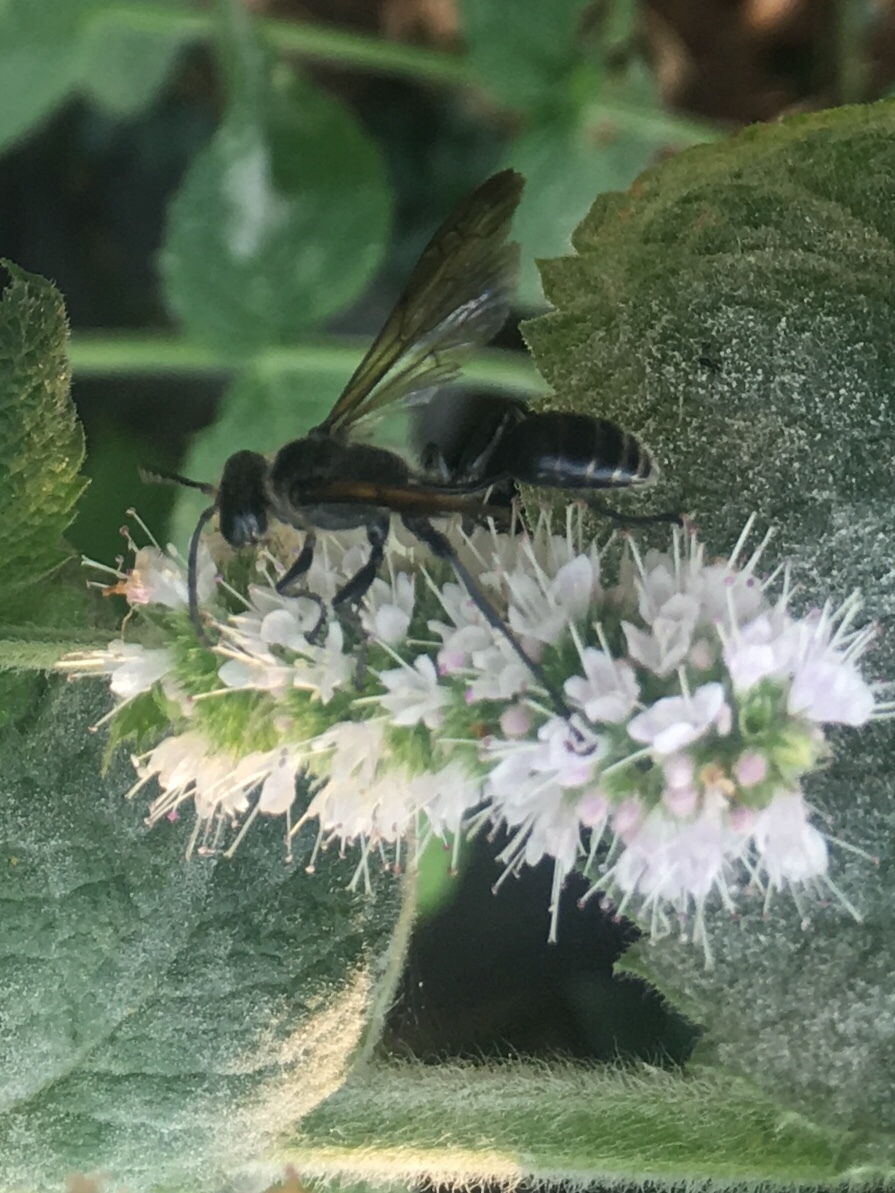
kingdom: Animalia
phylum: Arthropoda
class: Insecta
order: Hymenoptera
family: Sphecidae
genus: Isodontia
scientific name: Isodontia mexicana
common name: Mud dauber
